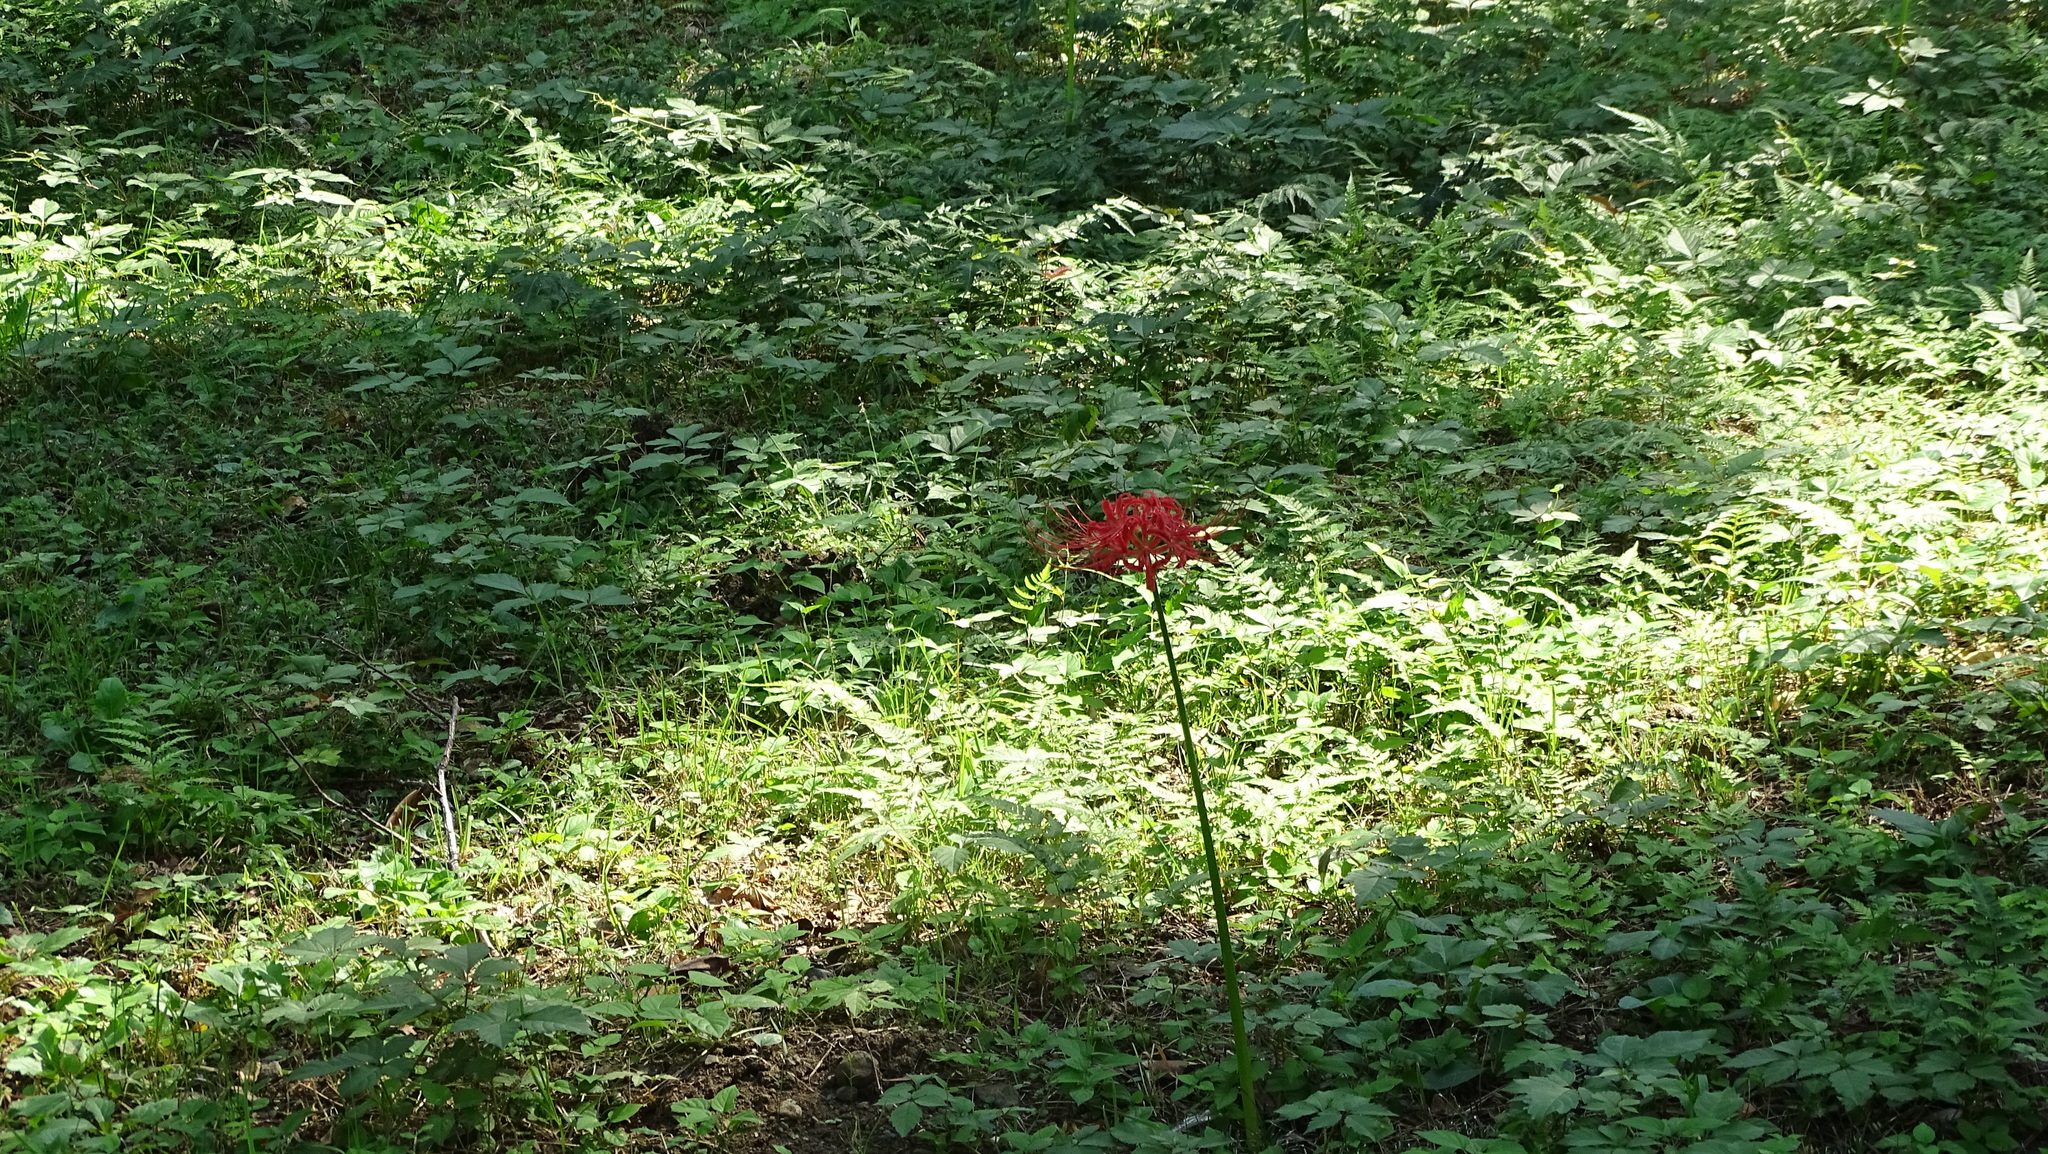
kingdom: Plantae
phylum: Tracheophyta
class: Liliopsida
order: Asparagales
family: Amaryllidaceae
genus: Lycoris
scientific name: Lycoris radiata
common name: Red spider lily
